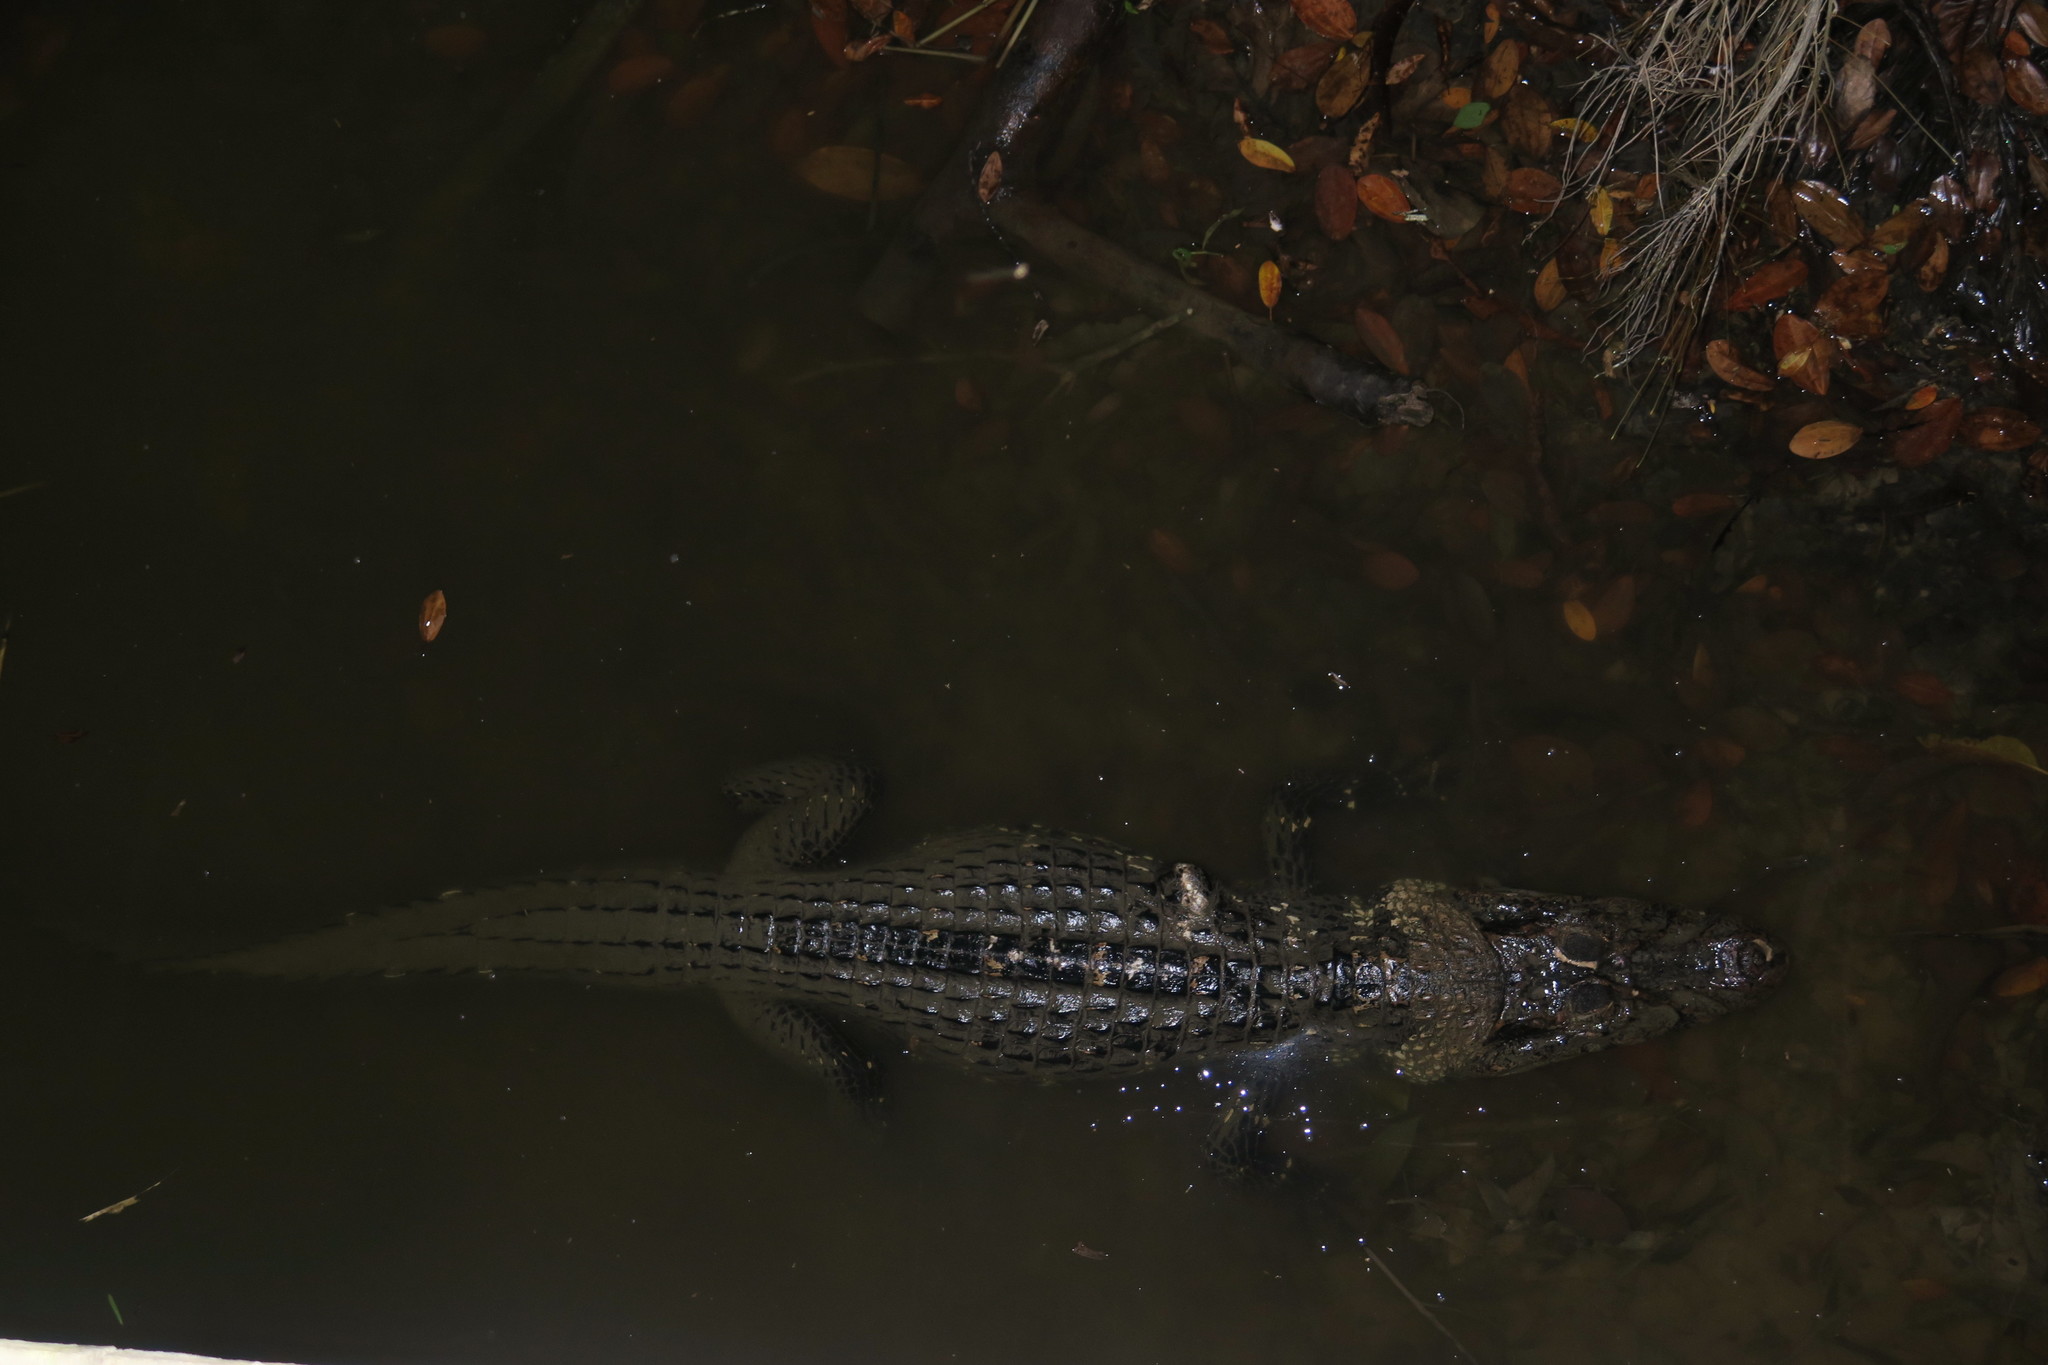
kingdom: Animalia
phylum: Chordata
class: Crocodylia
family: Alligatoridae
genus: Melanosuchus
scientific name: Melanosuchus niger
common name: Black caiman
